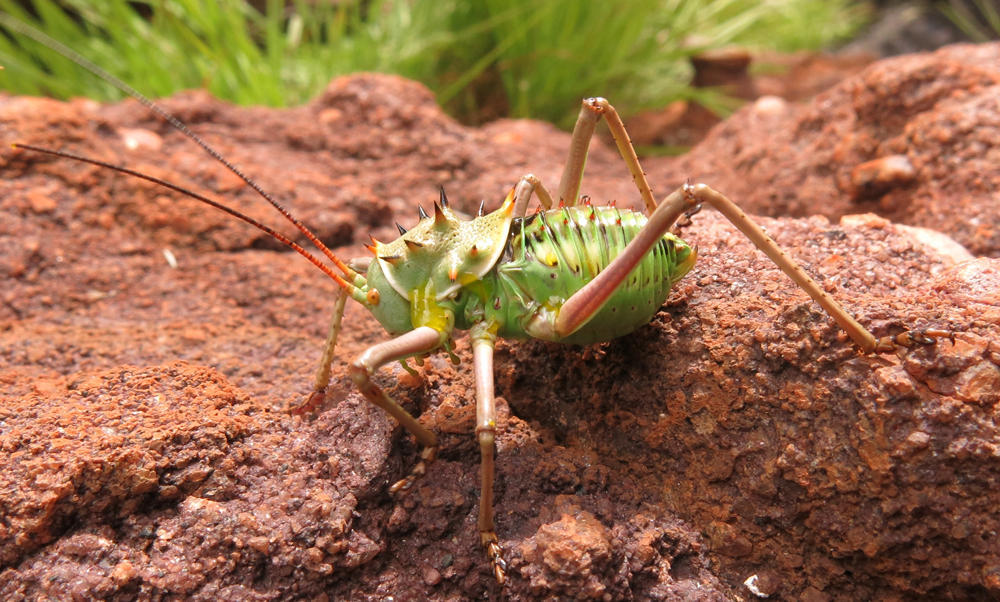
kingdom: Animalia
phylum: Arthropoda
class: Insecta
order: Orthoptera
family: Tettigoniidae
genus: Acanthoplus
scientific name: Acanthoplus discoidalis
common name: Armoured katydid
